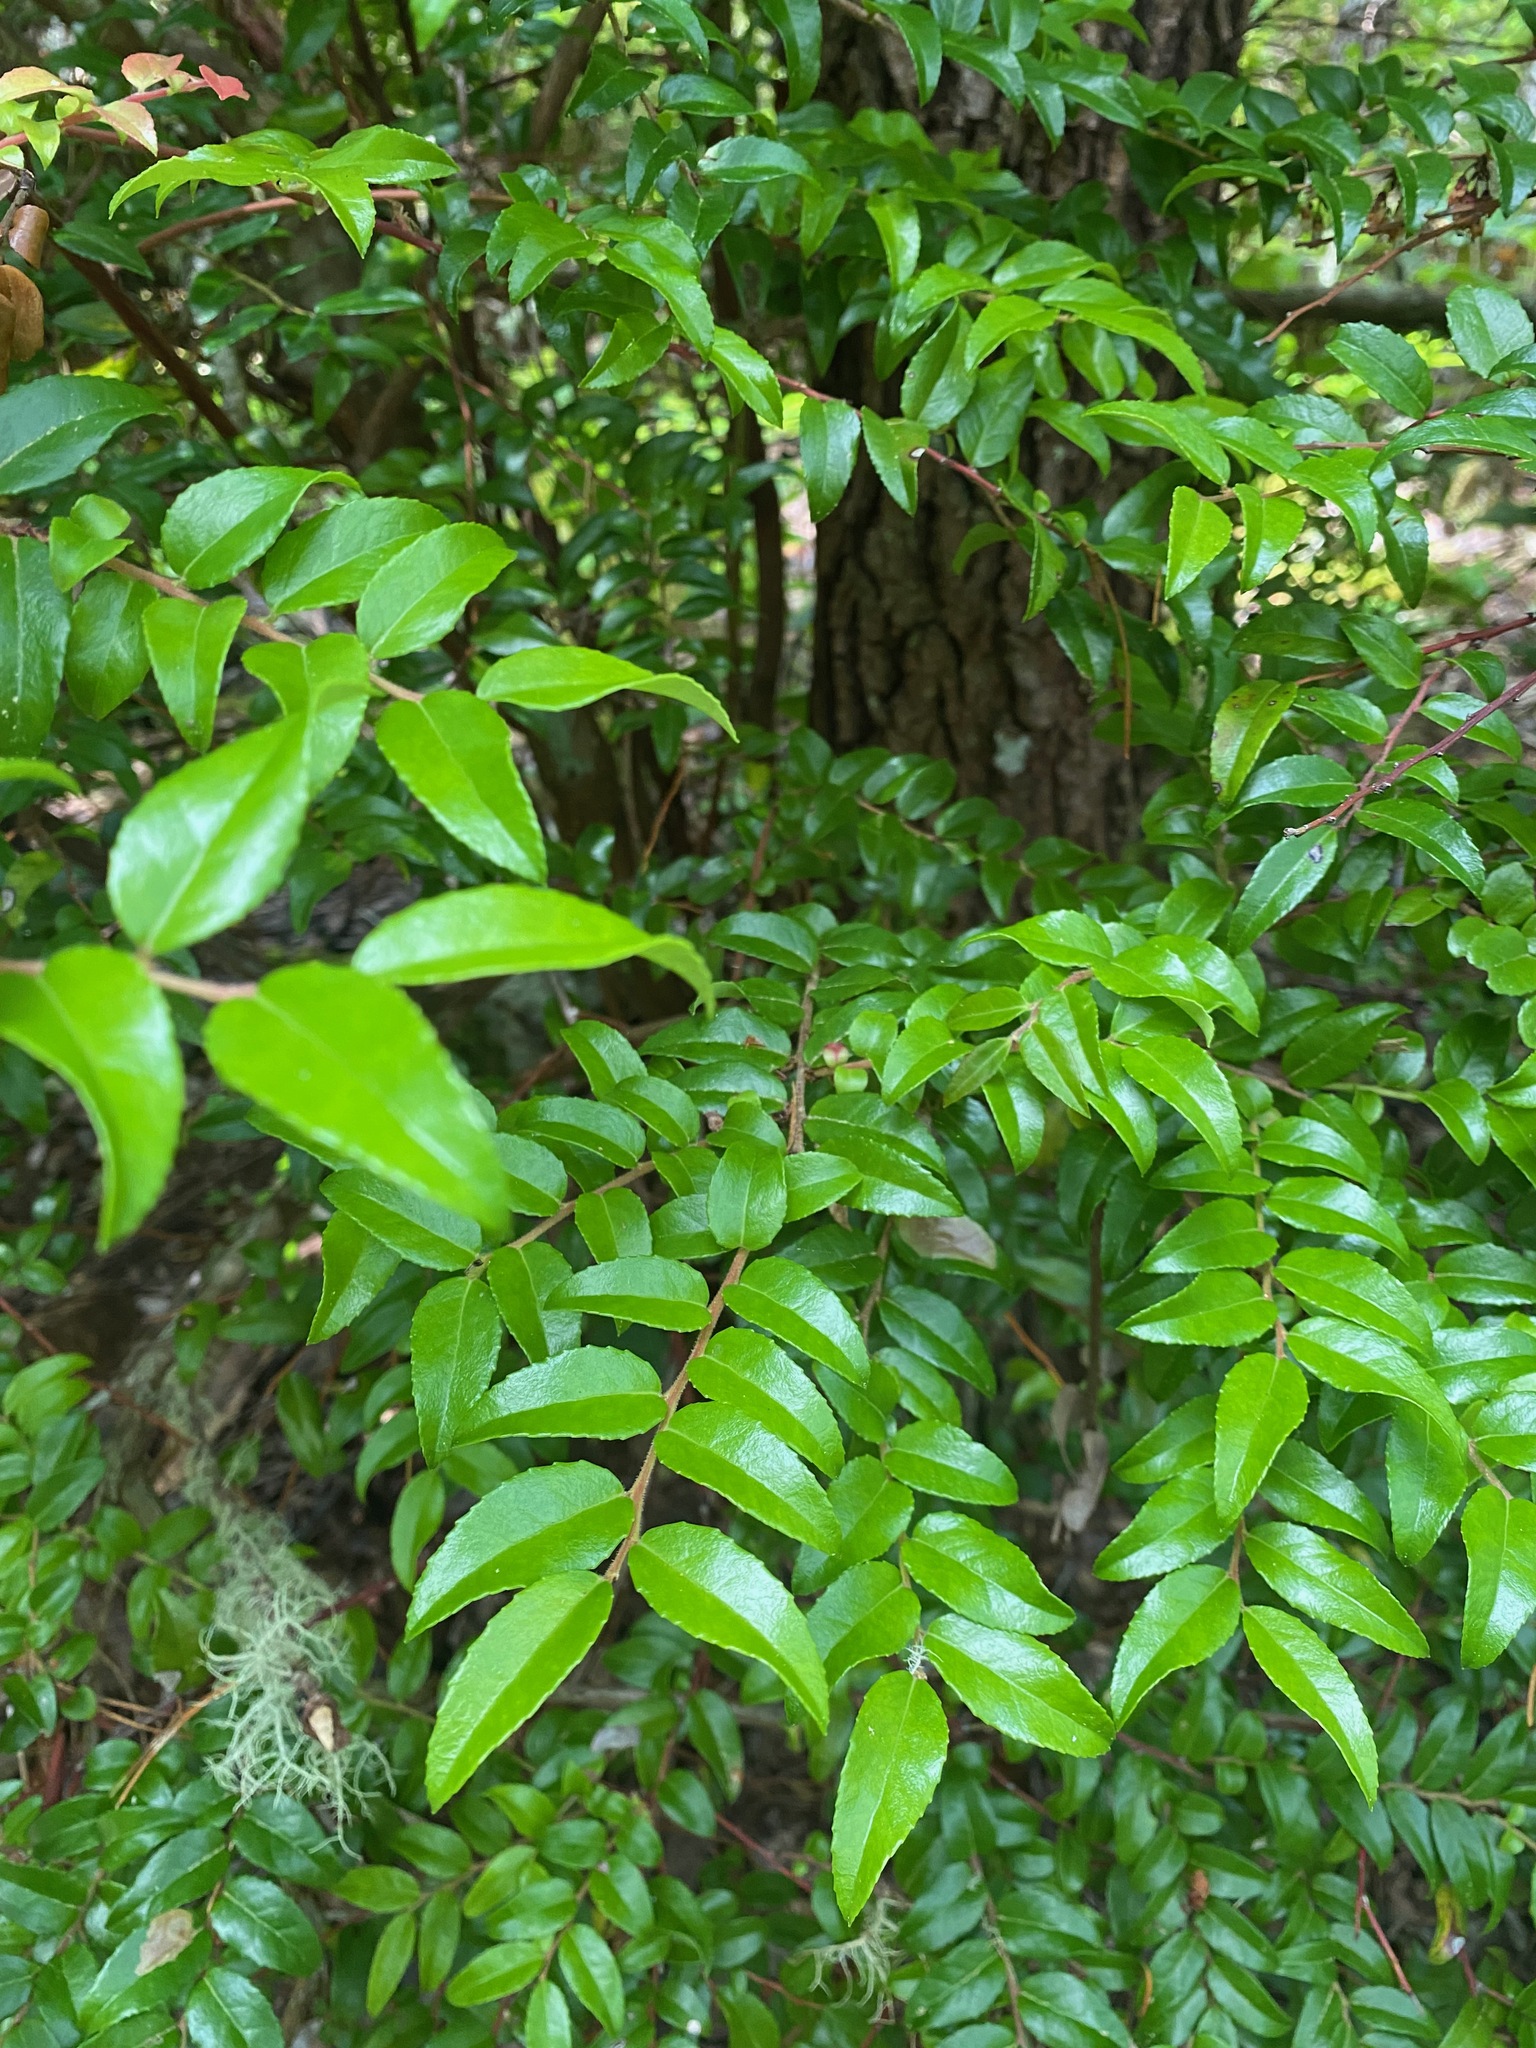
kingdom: Plantae
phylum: Tracheophyta
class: Magnoliopsida
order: Ericales
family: Ericaceae
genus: Vaccinium
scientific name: Vaccinium ovatum
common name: California-huckleberry
